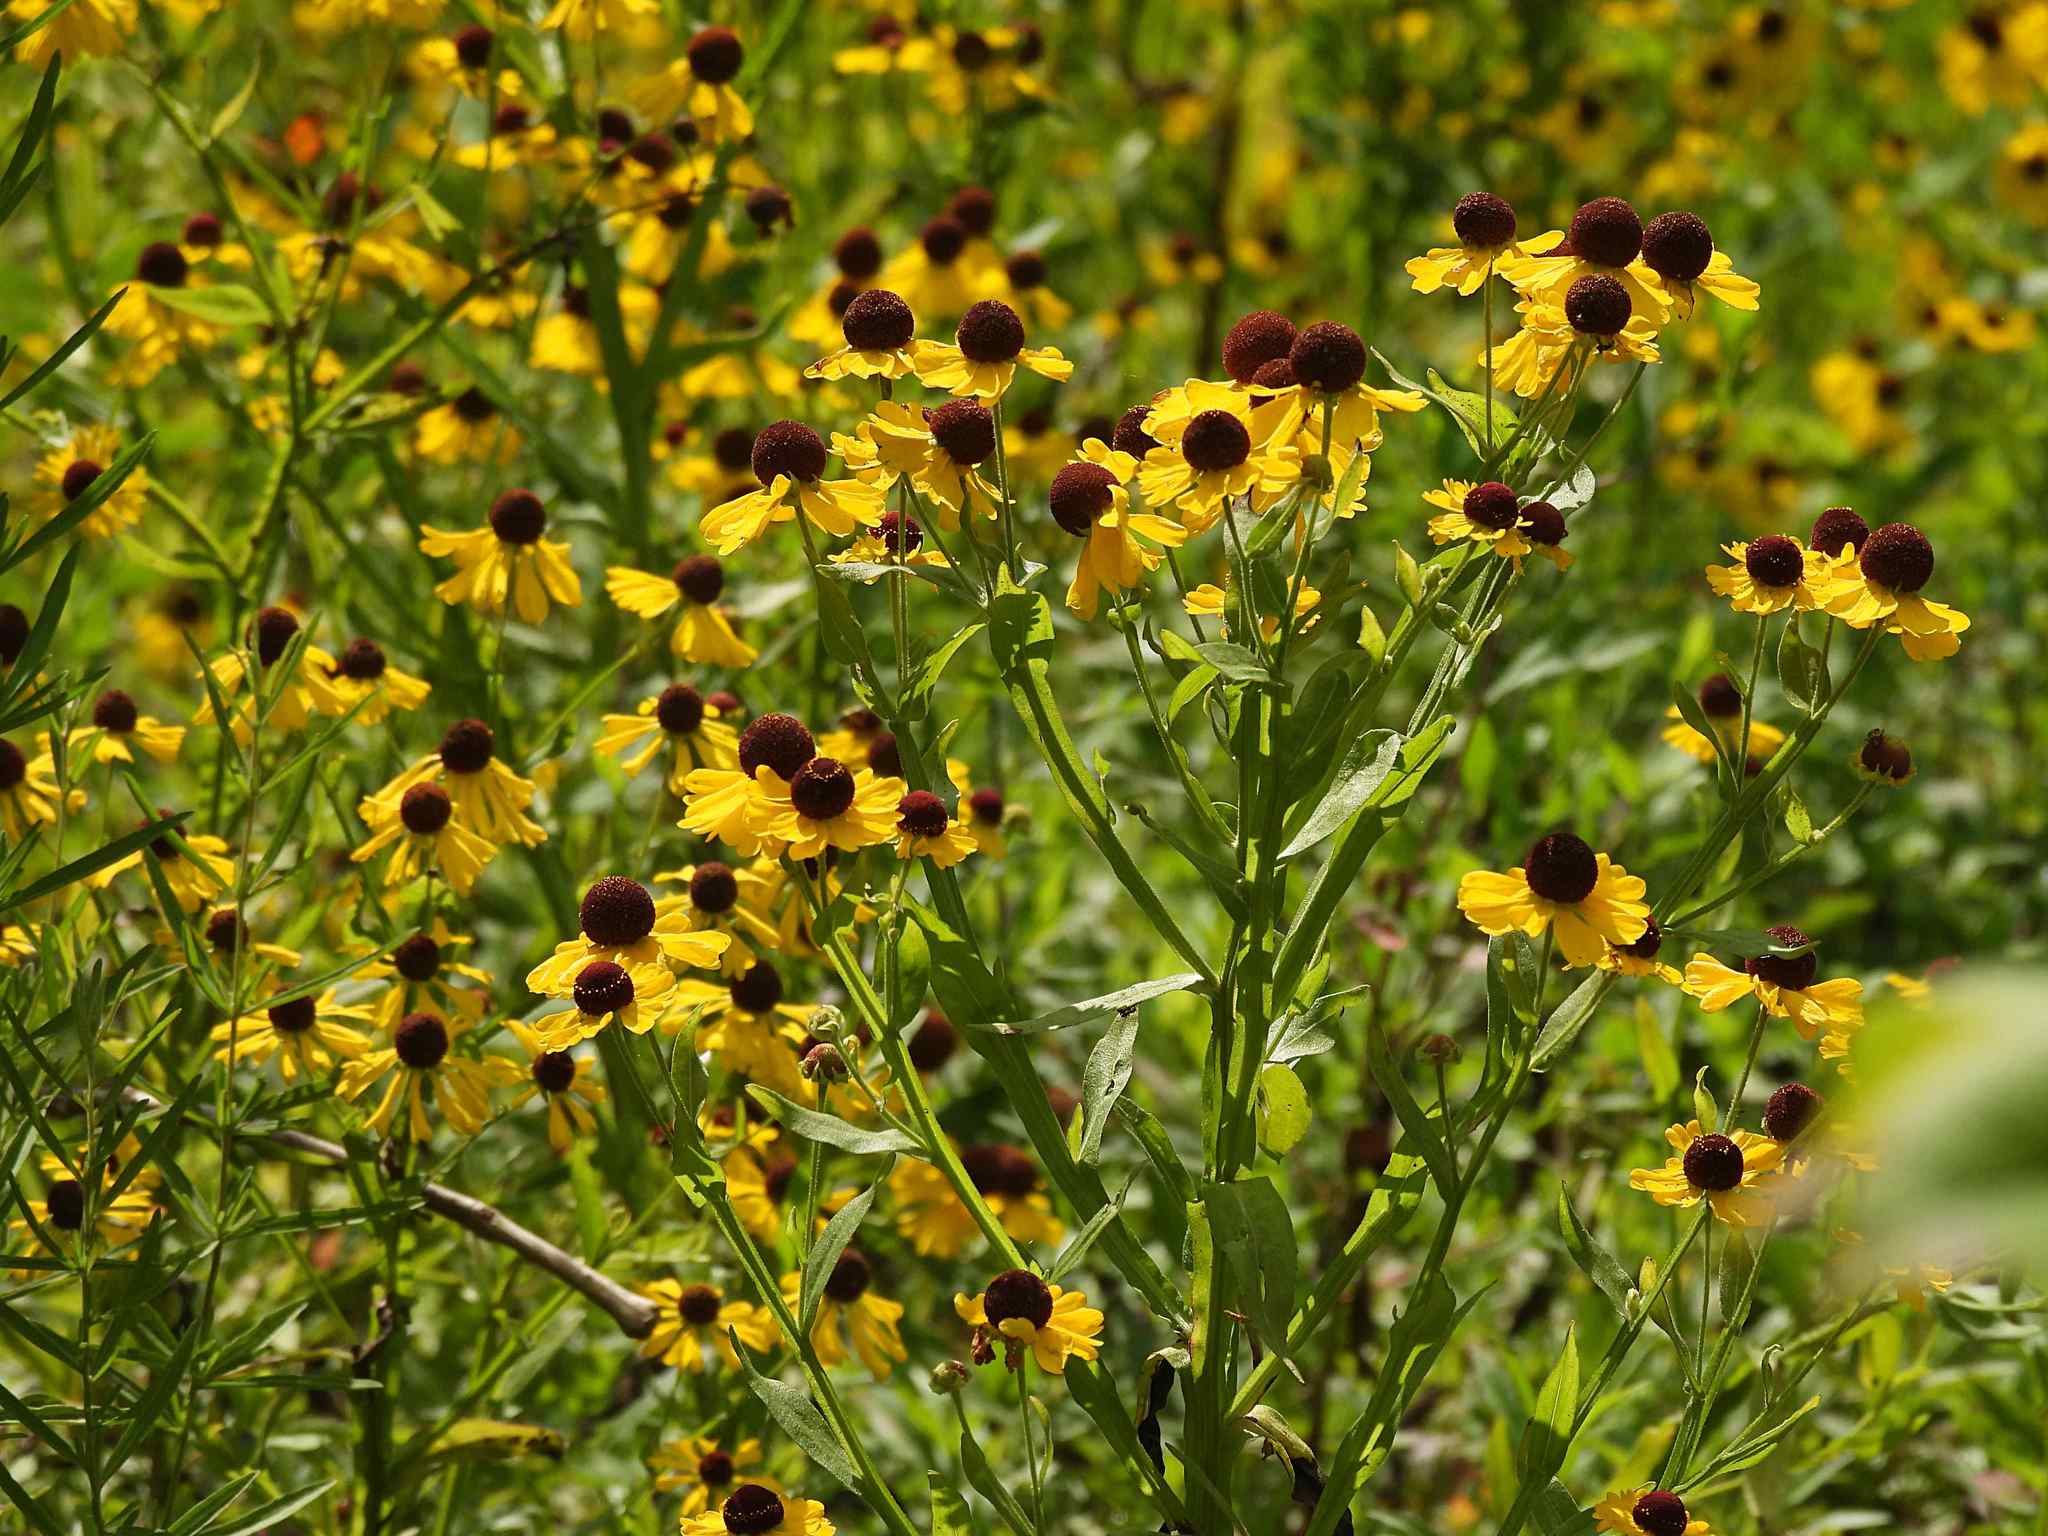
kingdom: Plantae
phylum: Tracheophyta
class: Magnoliopsida
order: Asterales
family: Asteraceae
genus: Helenium
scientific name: Helenium flexuosum
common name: Naked-flowered sneezeweed
